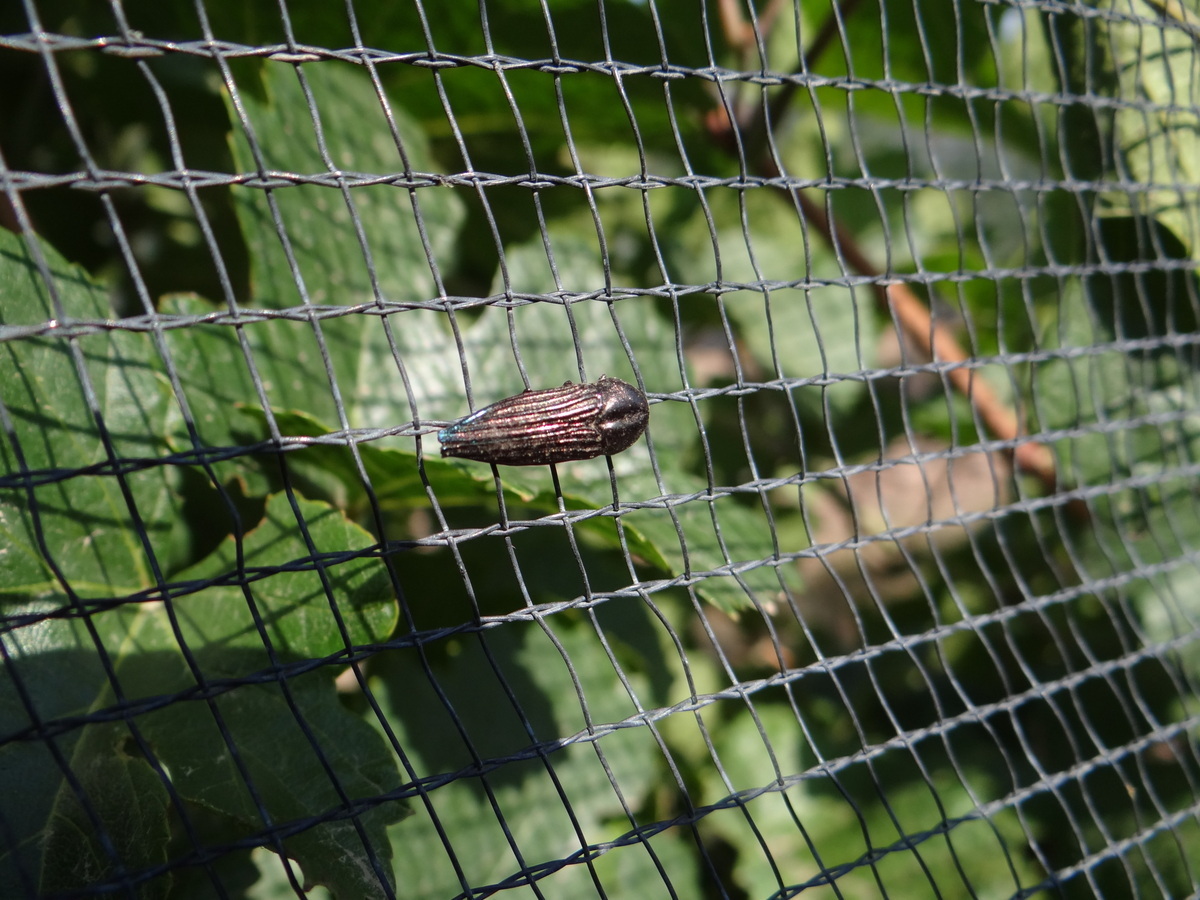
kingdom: Animalia
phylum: Arthropoda
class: Insecta
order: Coleoptera
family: Buprestidae
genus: Ocypetes
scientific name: Ocypetes crassicollis
